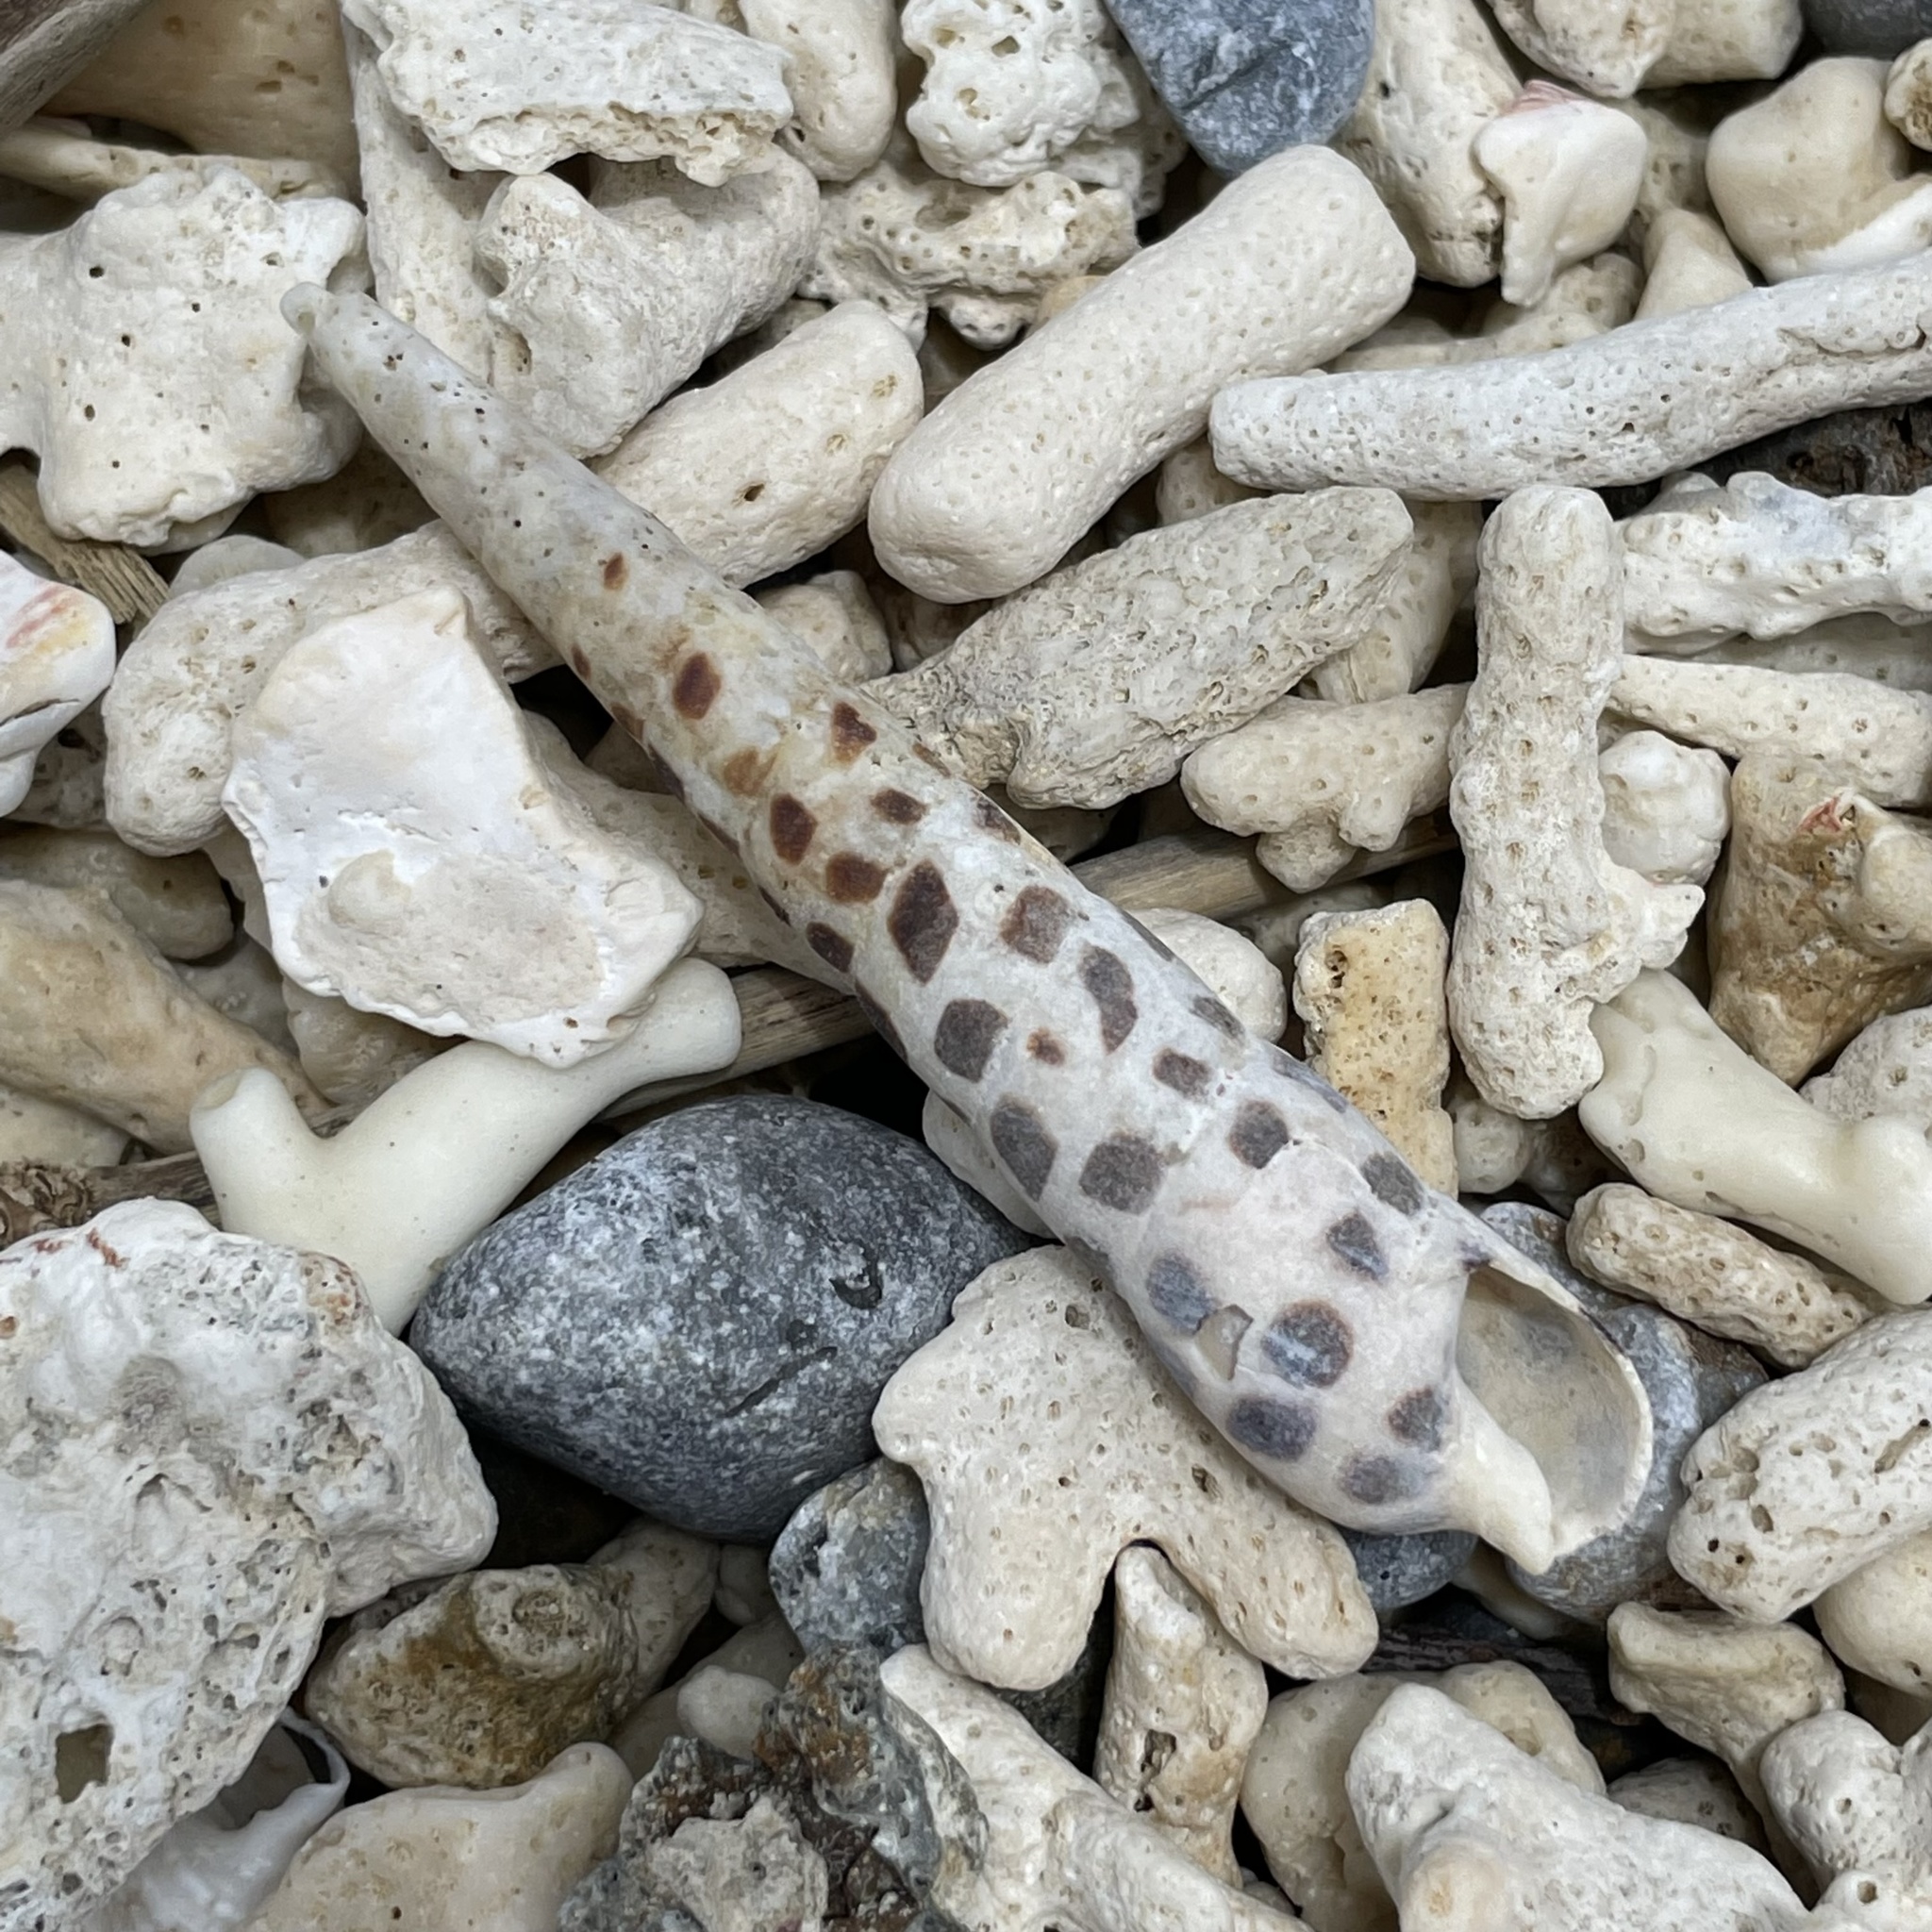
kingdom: Animalia
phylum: Mollusca
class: Gastropoda
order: Neogastropoda
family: Terebridae
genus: Terebra
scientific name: Terebra subulata
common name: Chocolate spotted auger
